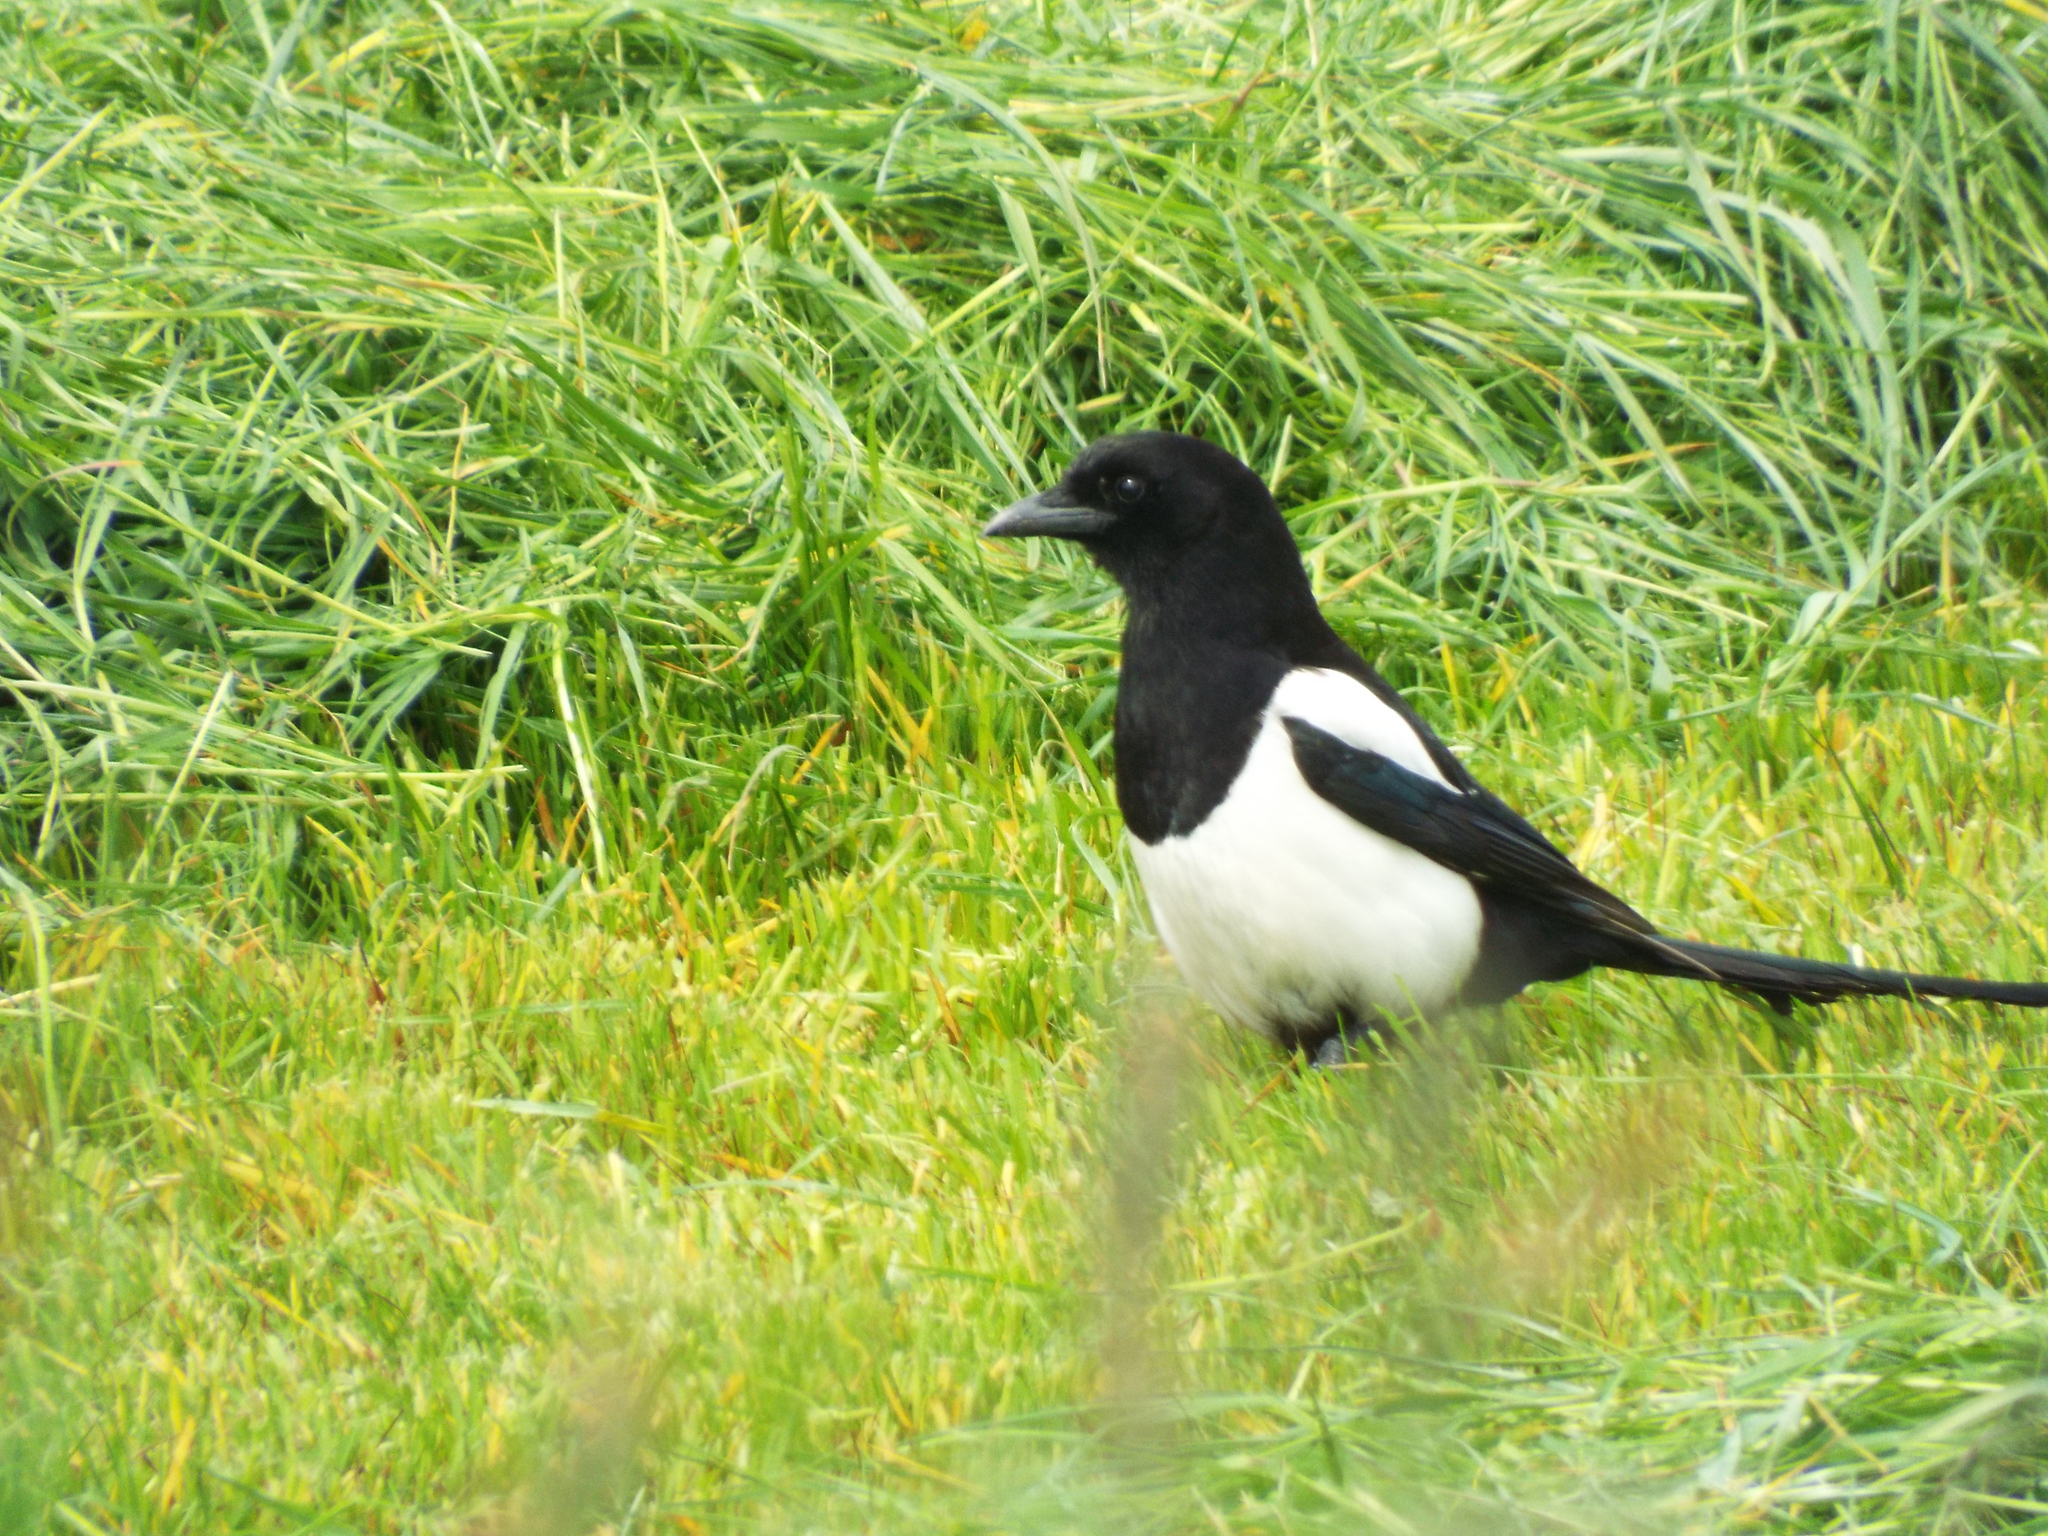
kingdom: Animalia
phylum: Chordata
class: Aves
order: Passeriformes
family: Corvidae
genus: Pica
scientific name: Pica pica
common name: Eurasian magpie
